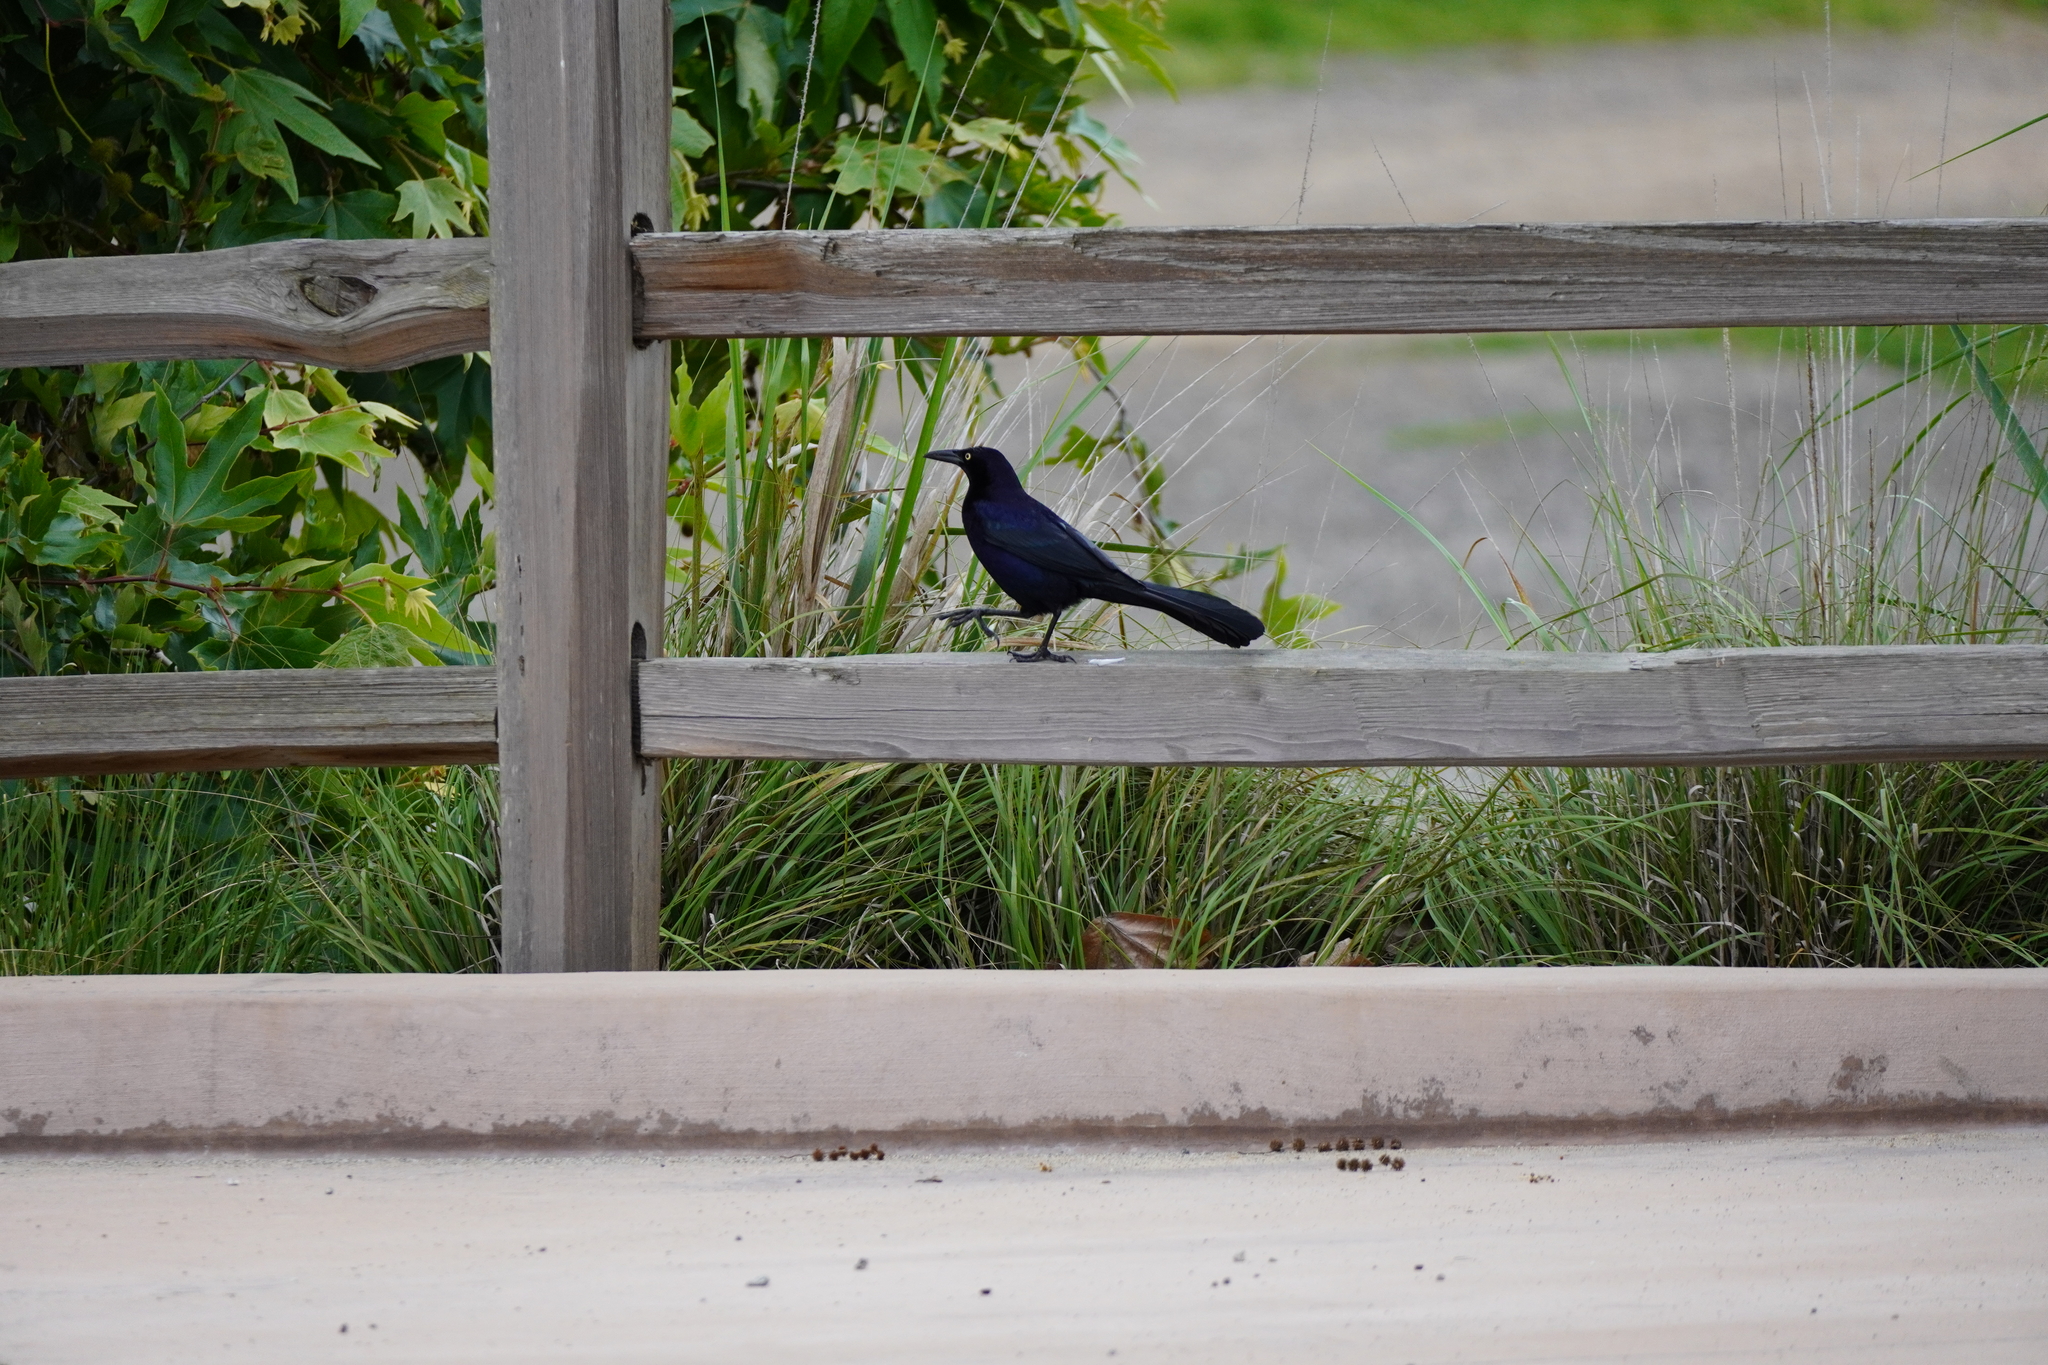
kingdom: Animalia
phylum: Chordata
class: Aves
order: Passeriformes
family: Icteridae
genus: Quiscalus
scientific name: Quiscalus mexicanus
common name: Great-tailed grackle
